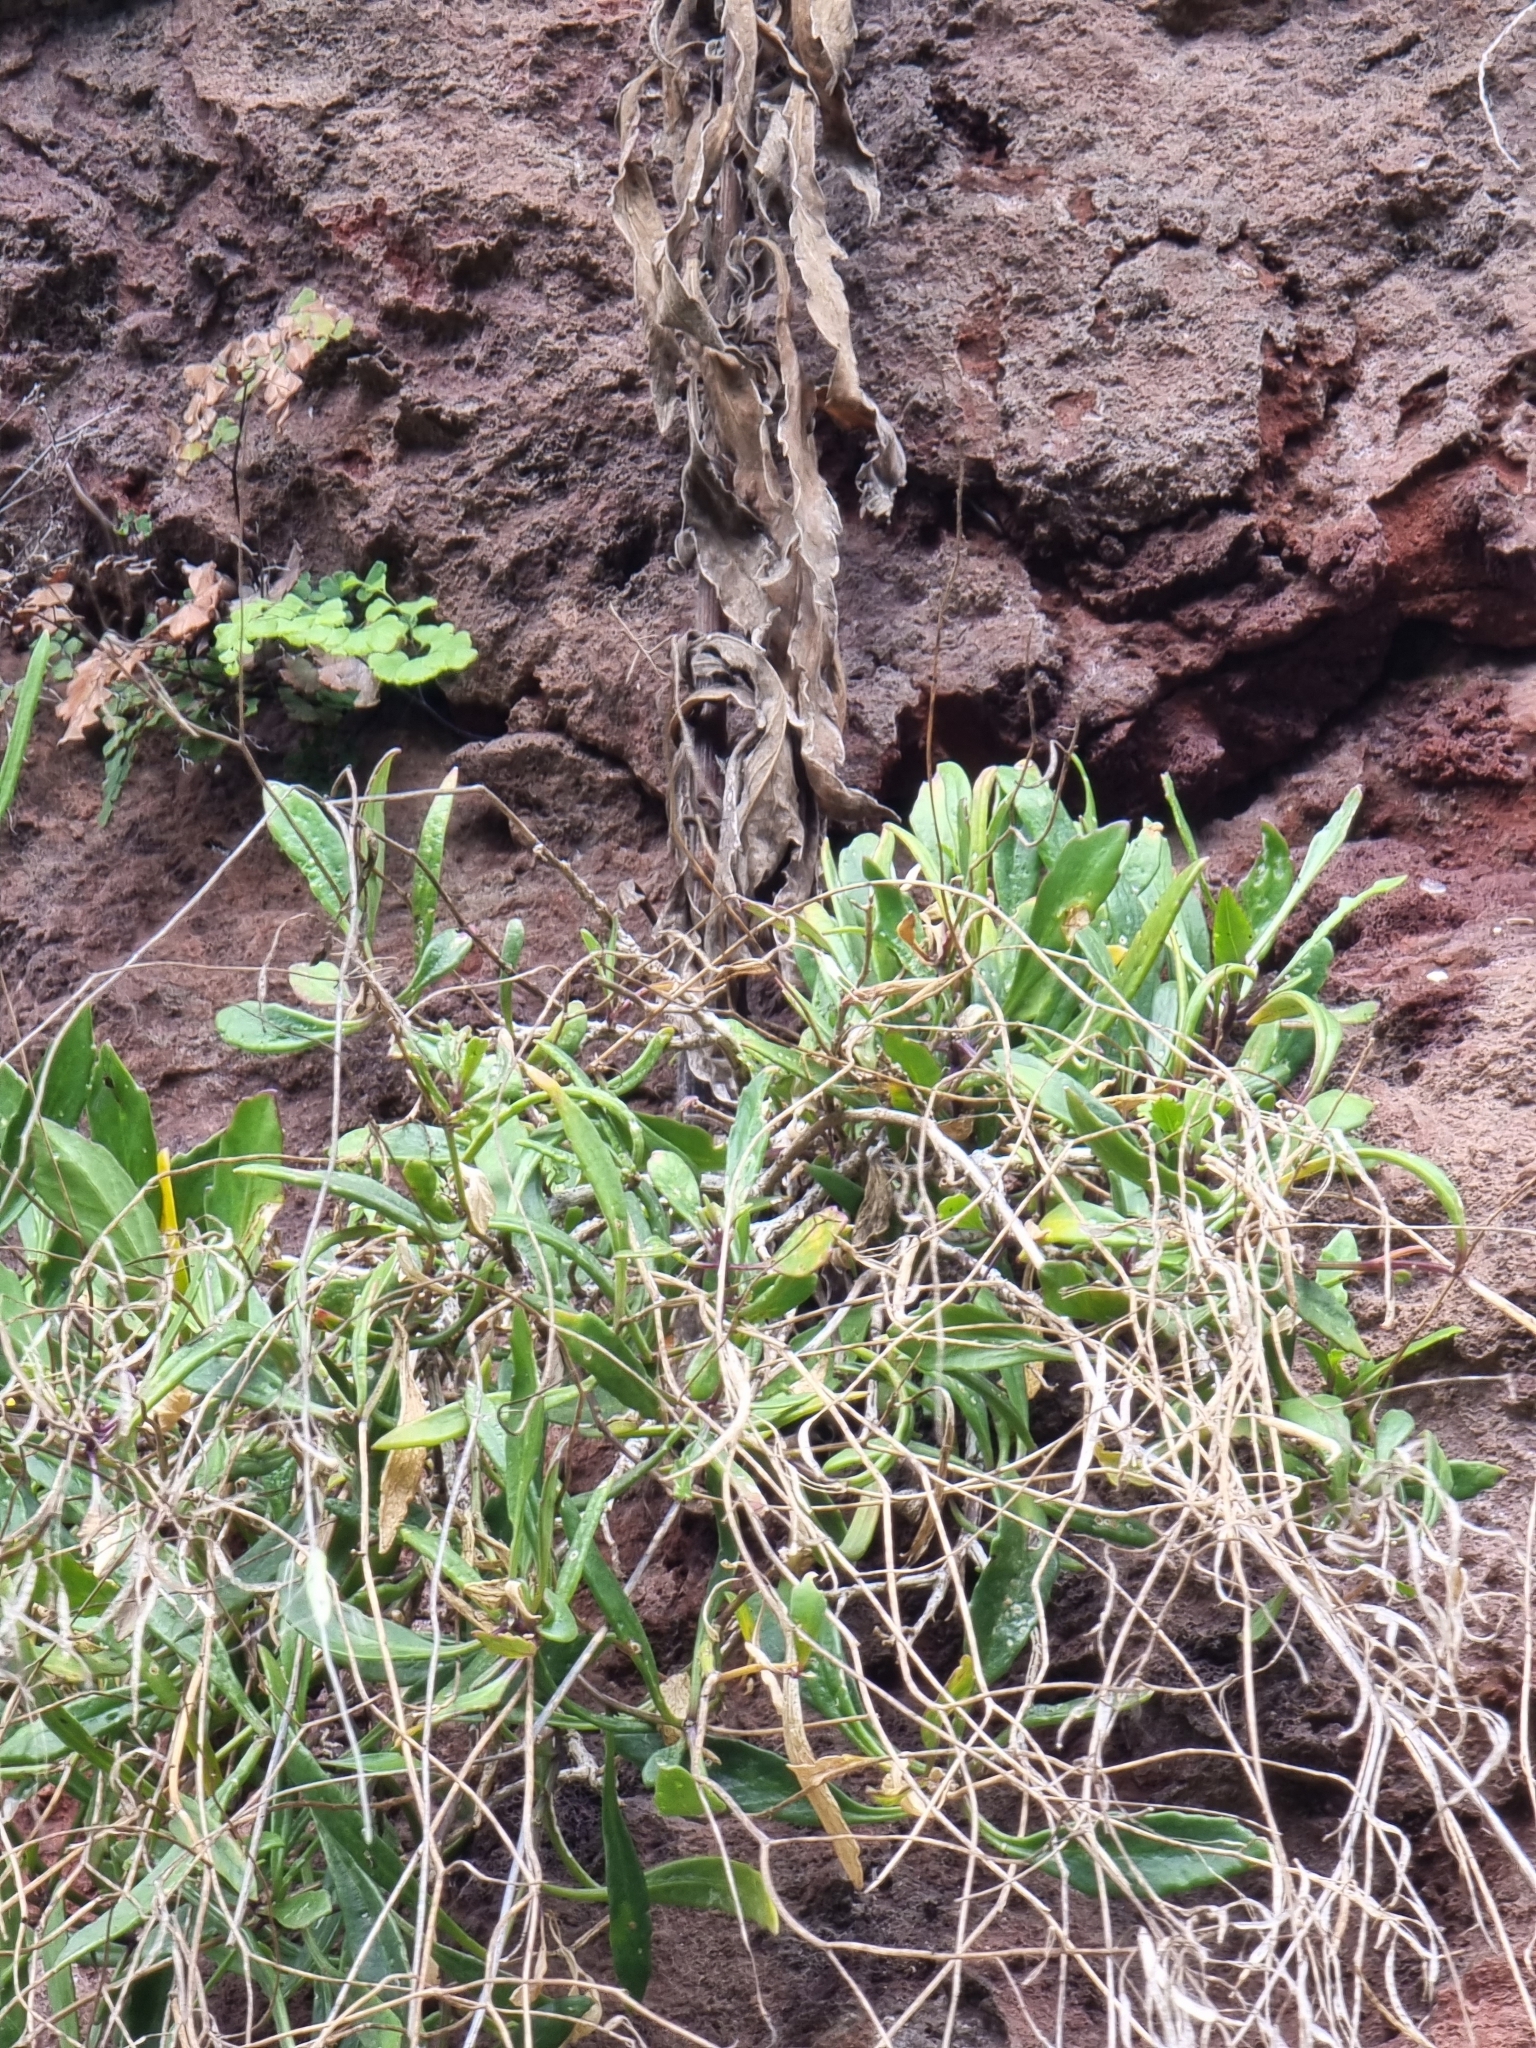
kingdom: Plantae
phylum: Tracheophyta
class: Magnoliopsida
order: Brassicales
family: Brassicaceae
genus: Sinapidendron
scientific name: Sinapidendron angustifolium
